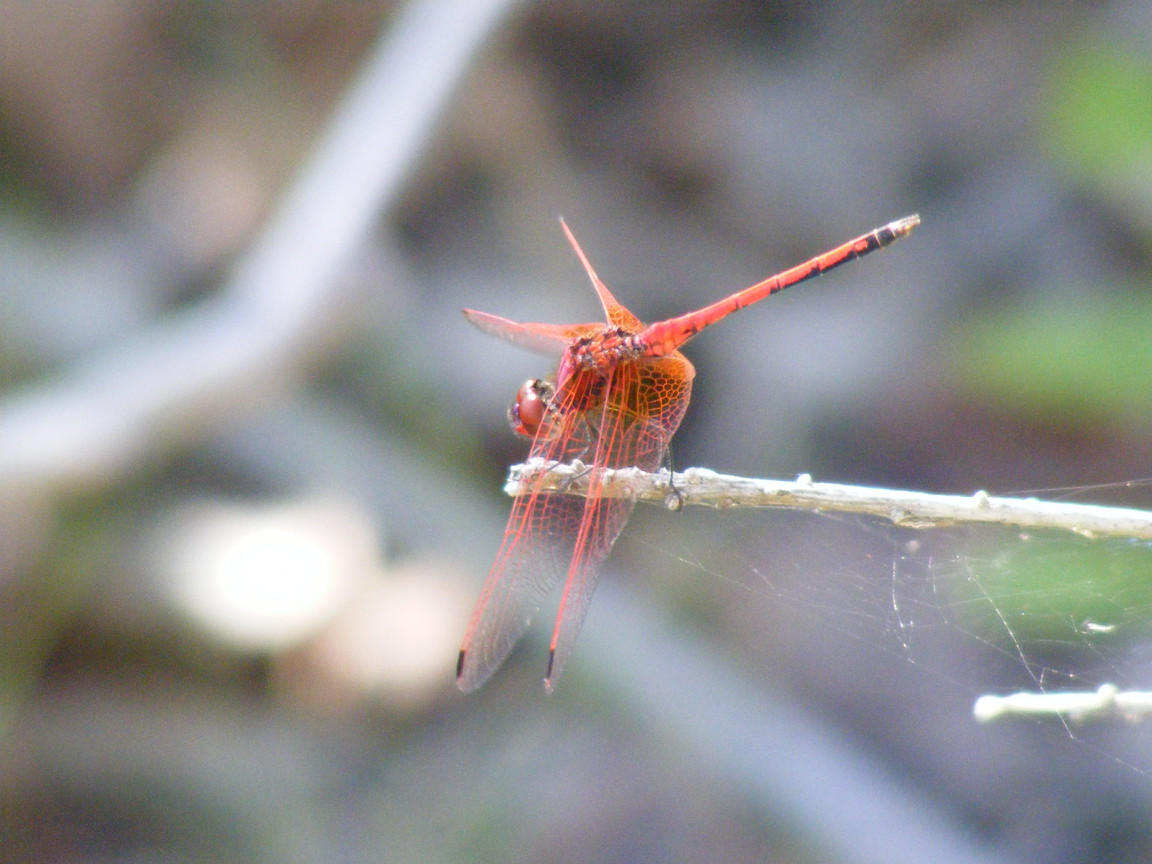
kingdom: Animalia
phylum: Arthropoda
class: Insecta
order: Odonata
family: Libellulidae
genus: Trithemis
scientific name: Trithemis arteriosa
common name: Red-veined dropwing
